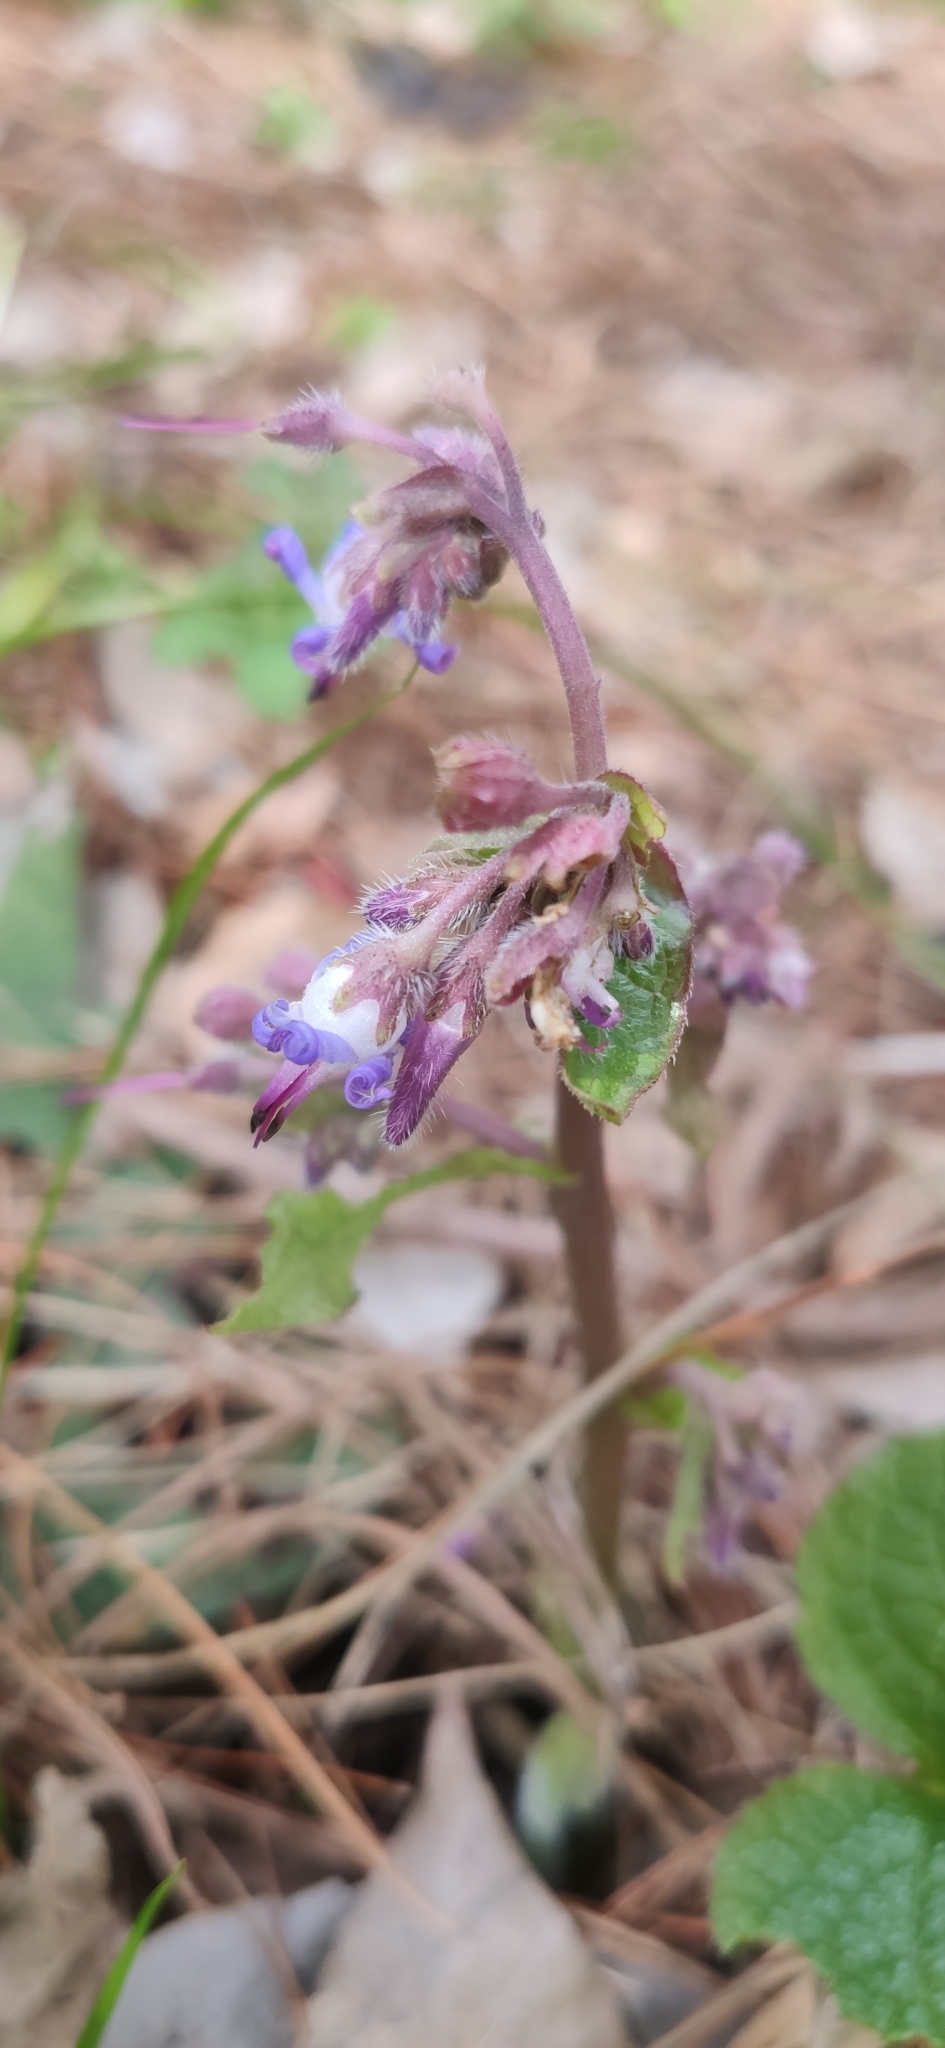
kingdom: Plantae
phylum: Tracheophyta
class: Magnoliopsida
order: Boraginales
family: Boraginaceae
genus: Trachystemon
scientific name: Trachystemon orientale
